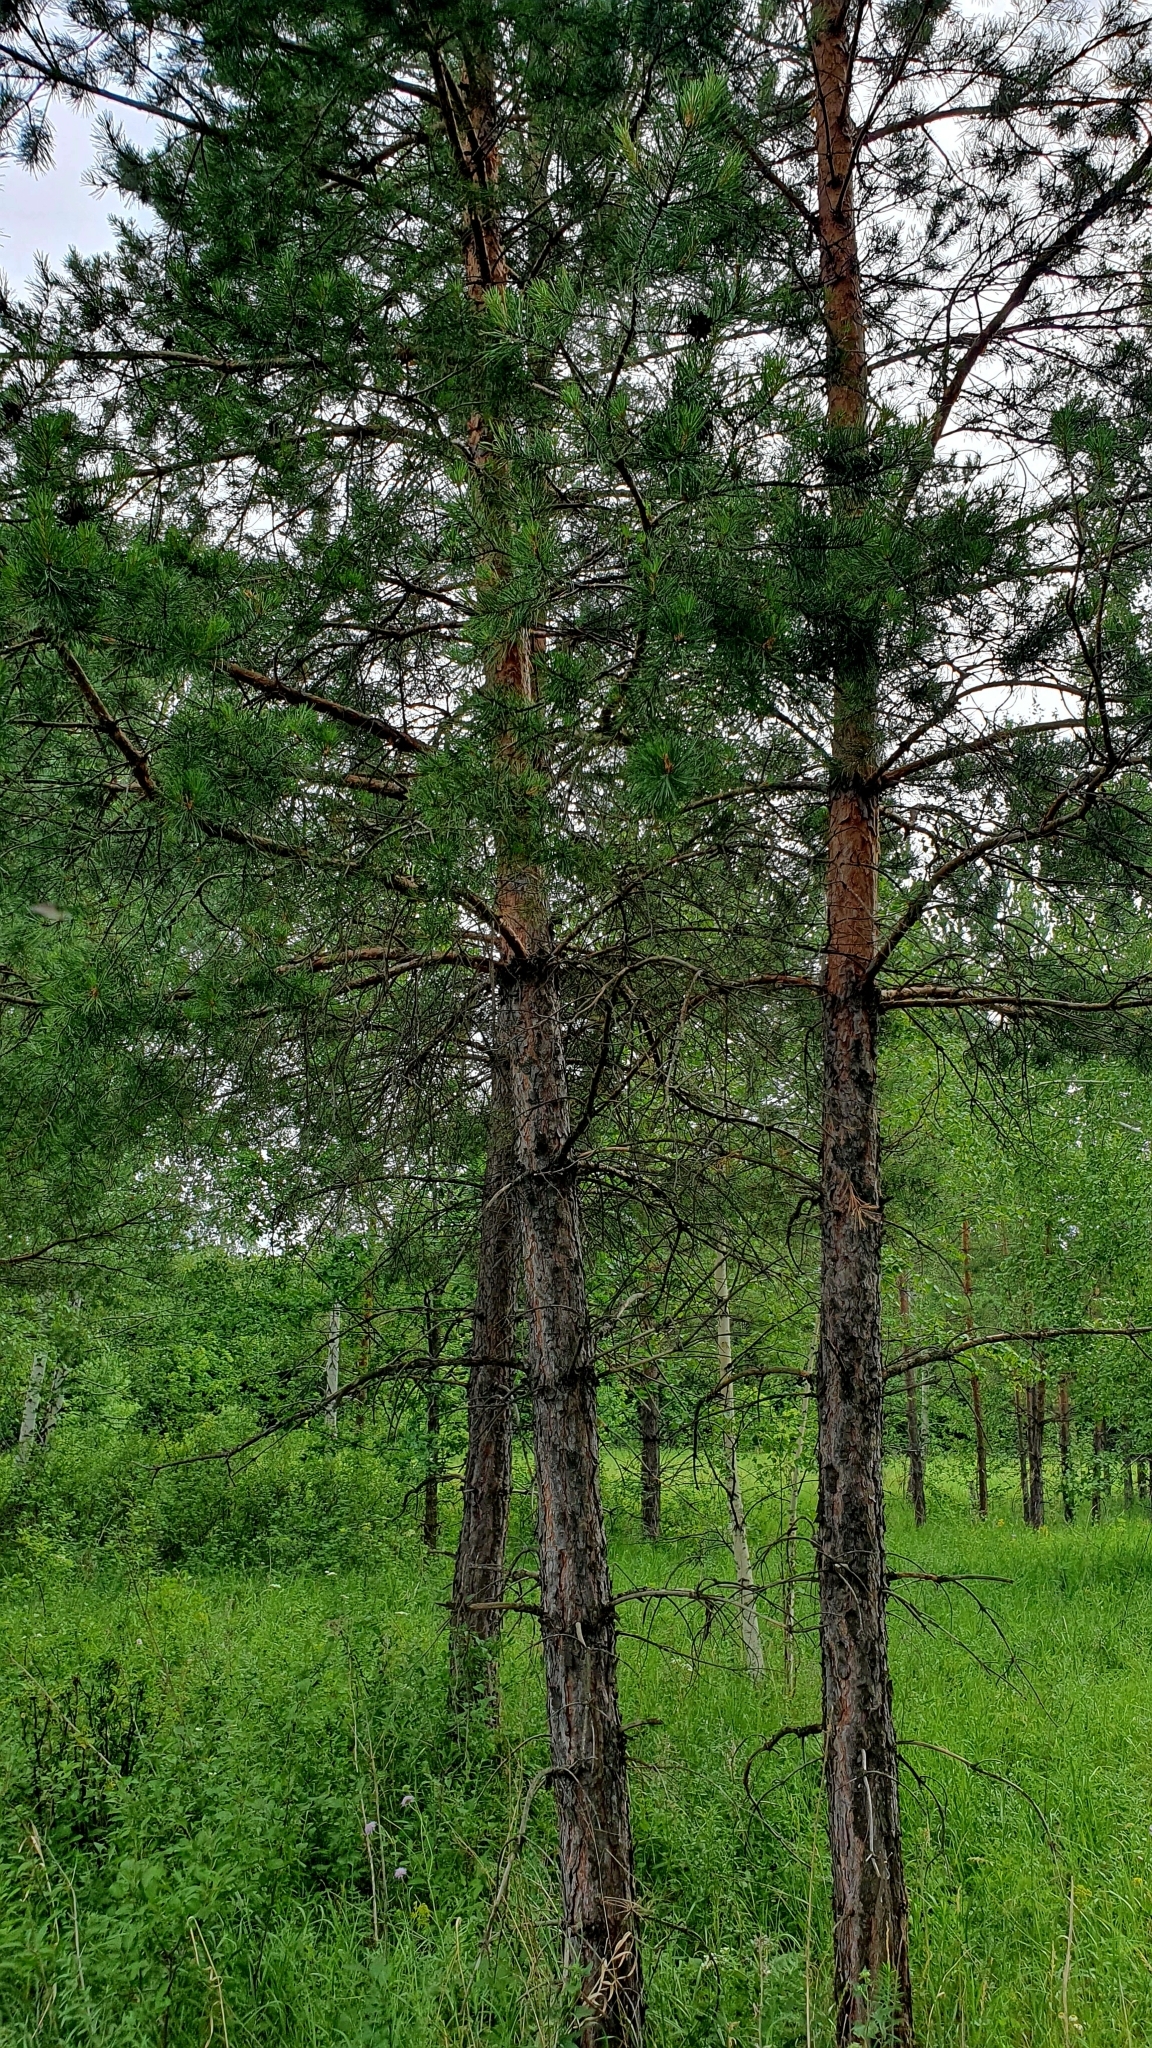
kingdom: Plantae
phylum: Tracheophyta
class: Pinopsida
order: Pinales
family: Pinaceae
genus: Pinus
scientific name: Pinus sylvestris
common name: Scots pine
